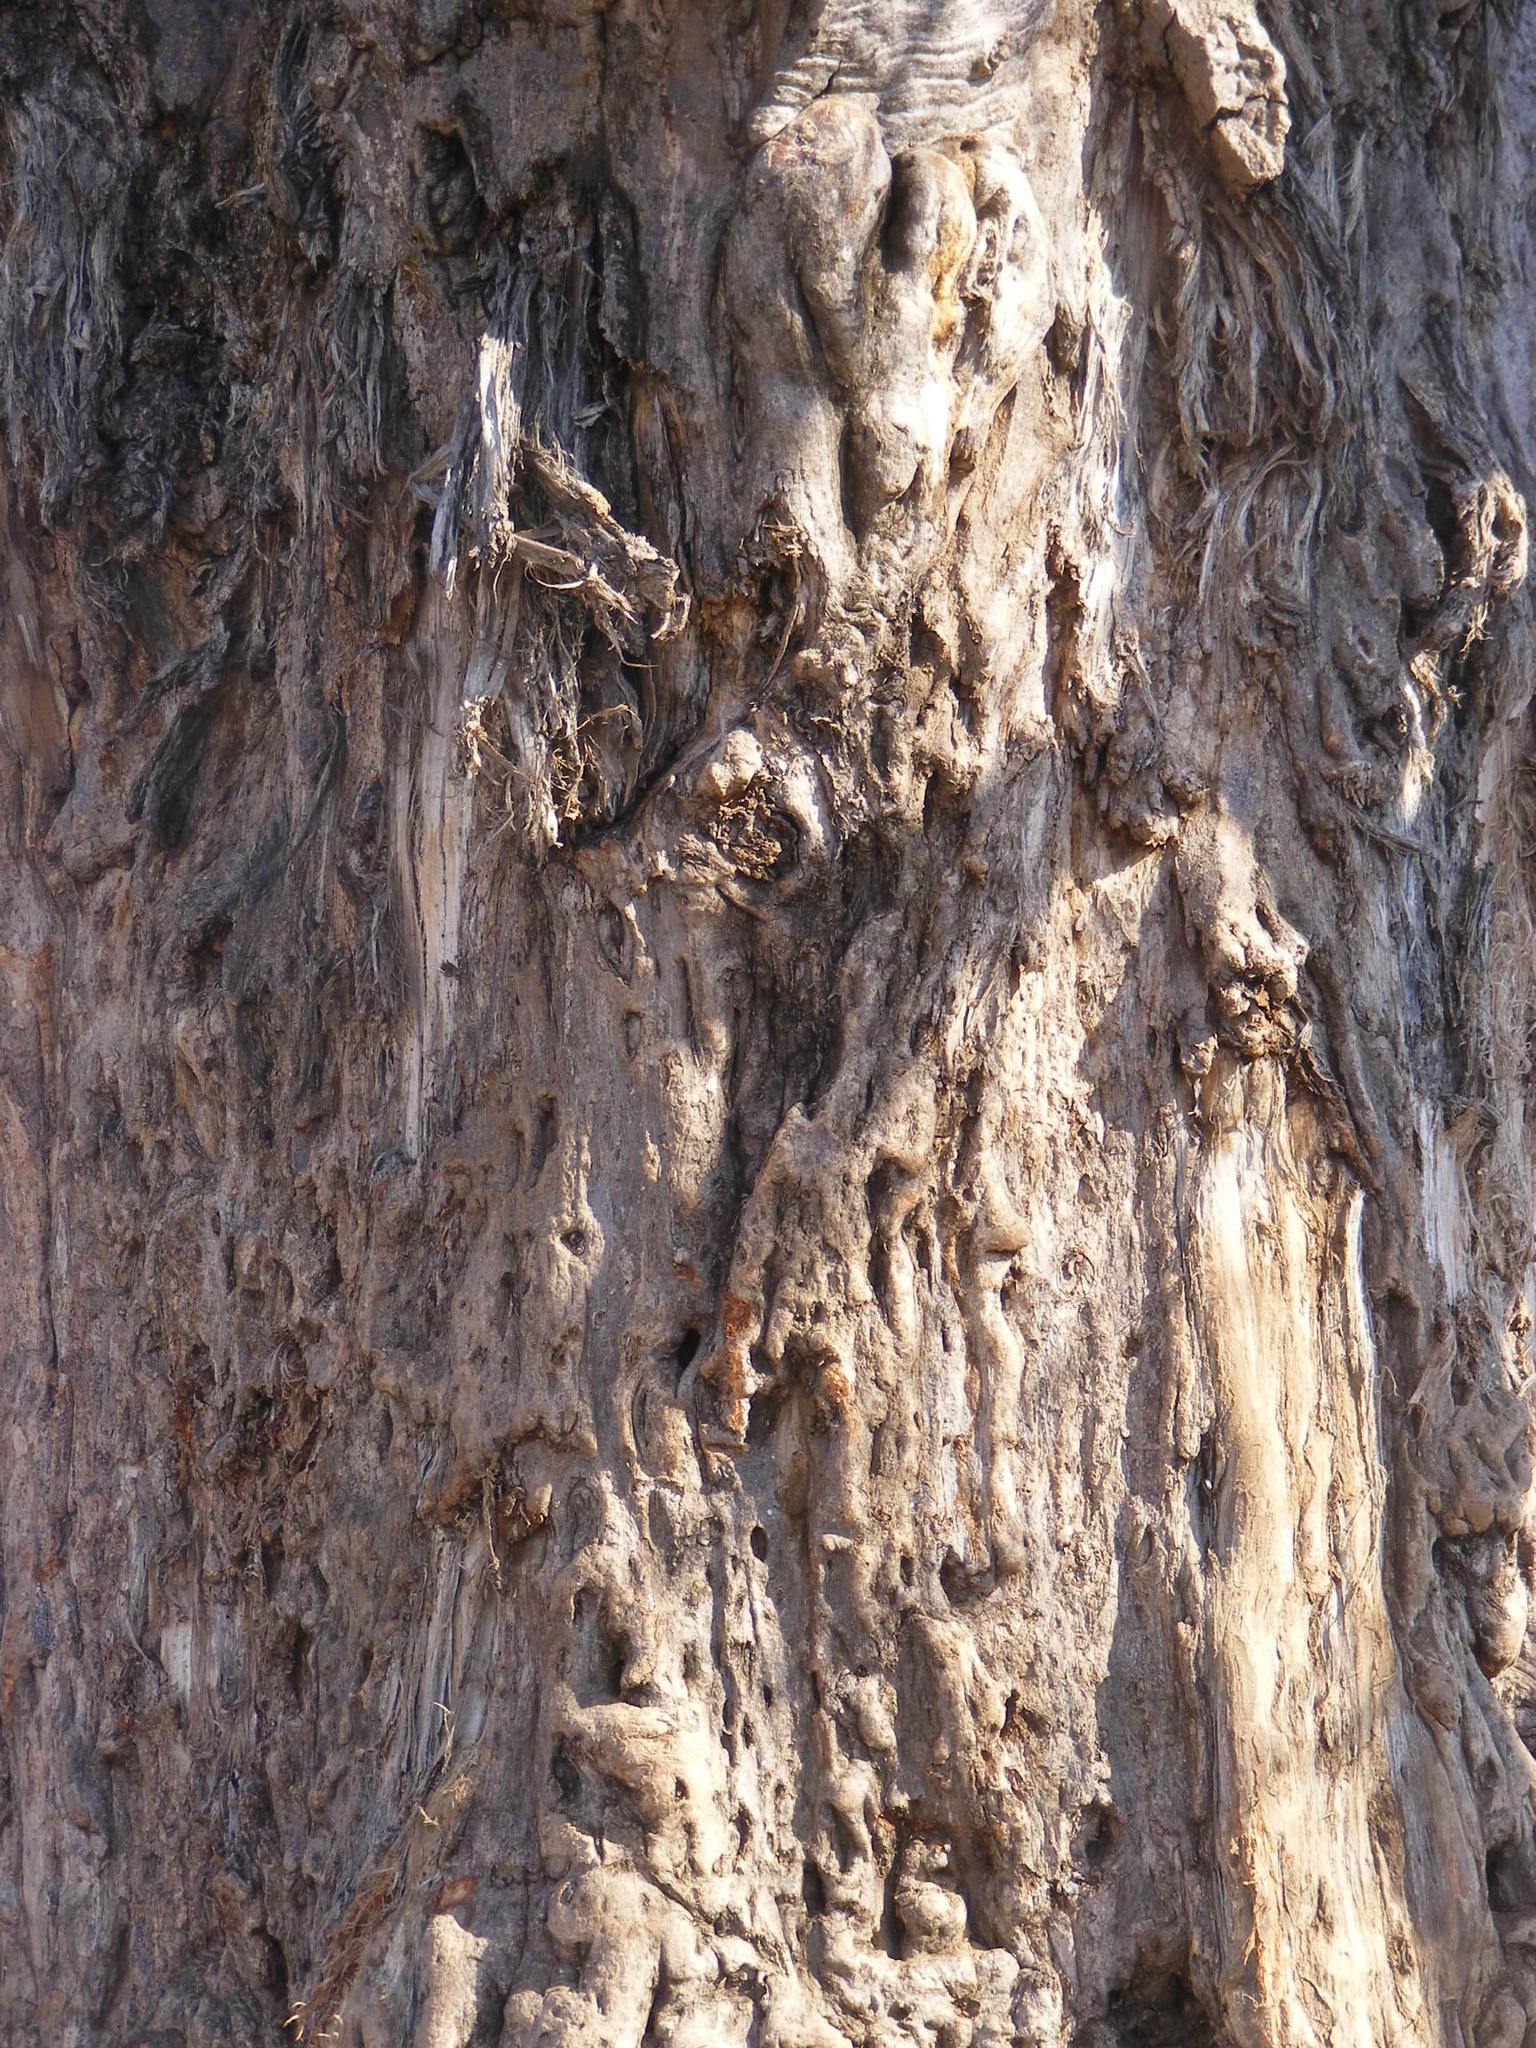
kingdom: Plantae
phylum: Tracheophyta
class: Magnoliopsida
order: Malvales
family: Malvaceae
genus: Adansonia
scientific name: Adansonia digitata
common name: Dead-rat-tree
